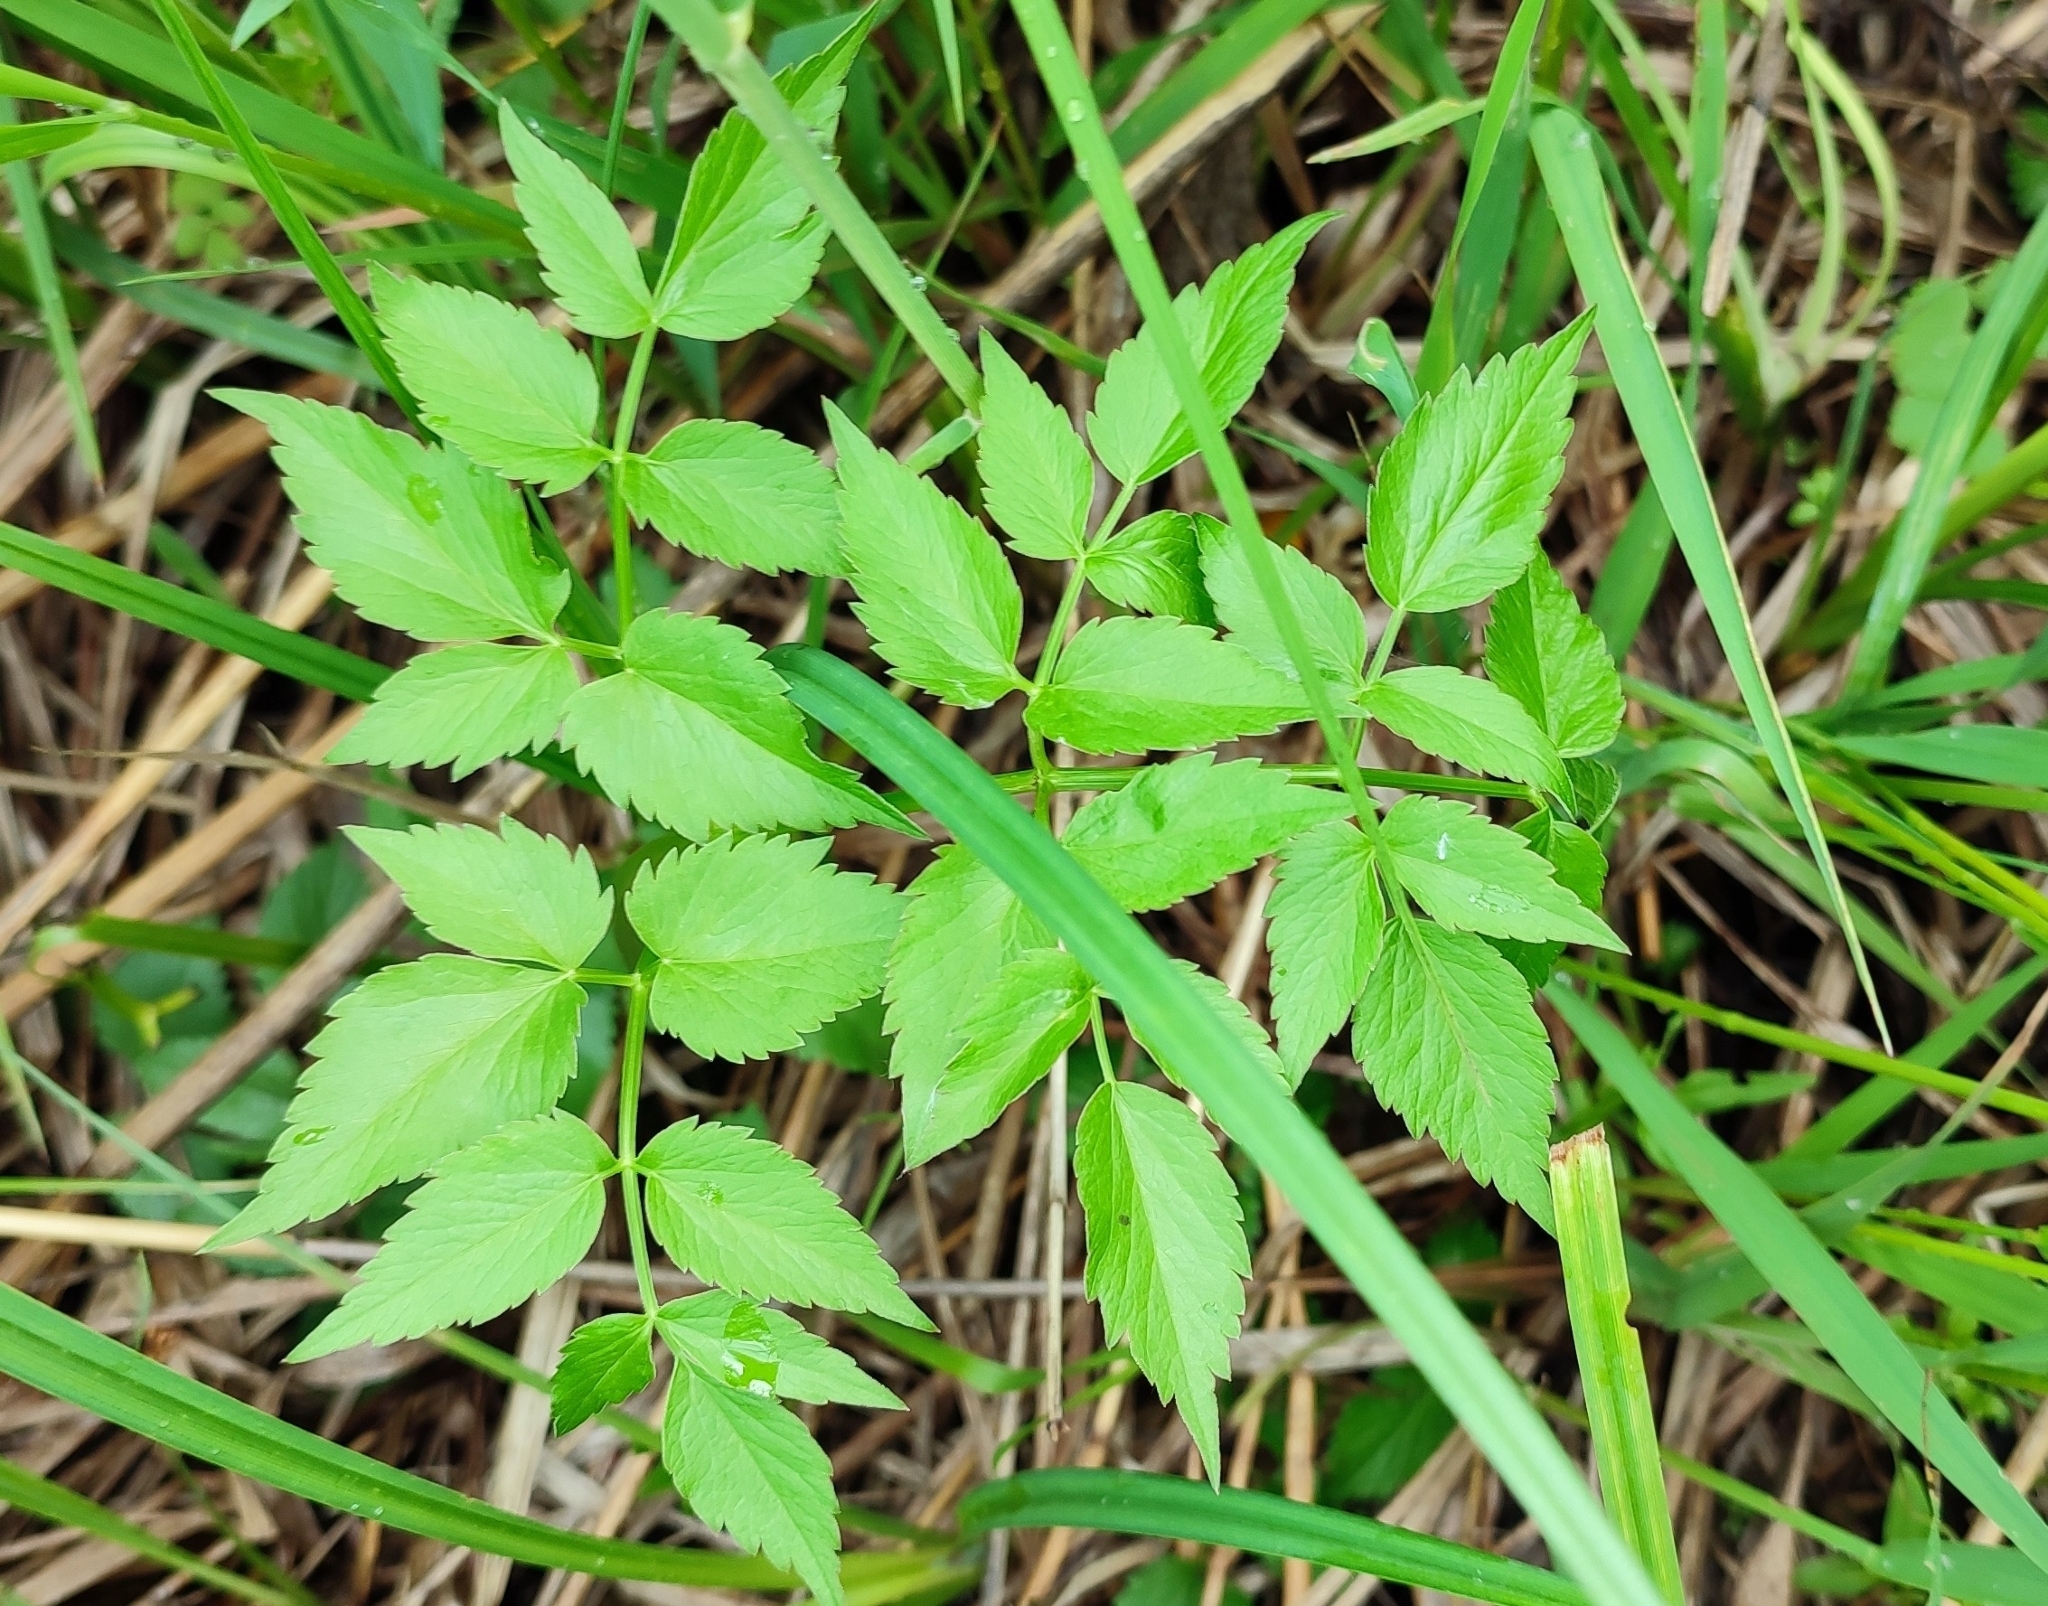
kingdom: Plantae
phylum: Tracheophyta
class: Magnoliopsida
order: Apiales
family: Apiaceae
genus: Ostericum
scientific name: Ostericum palustre
